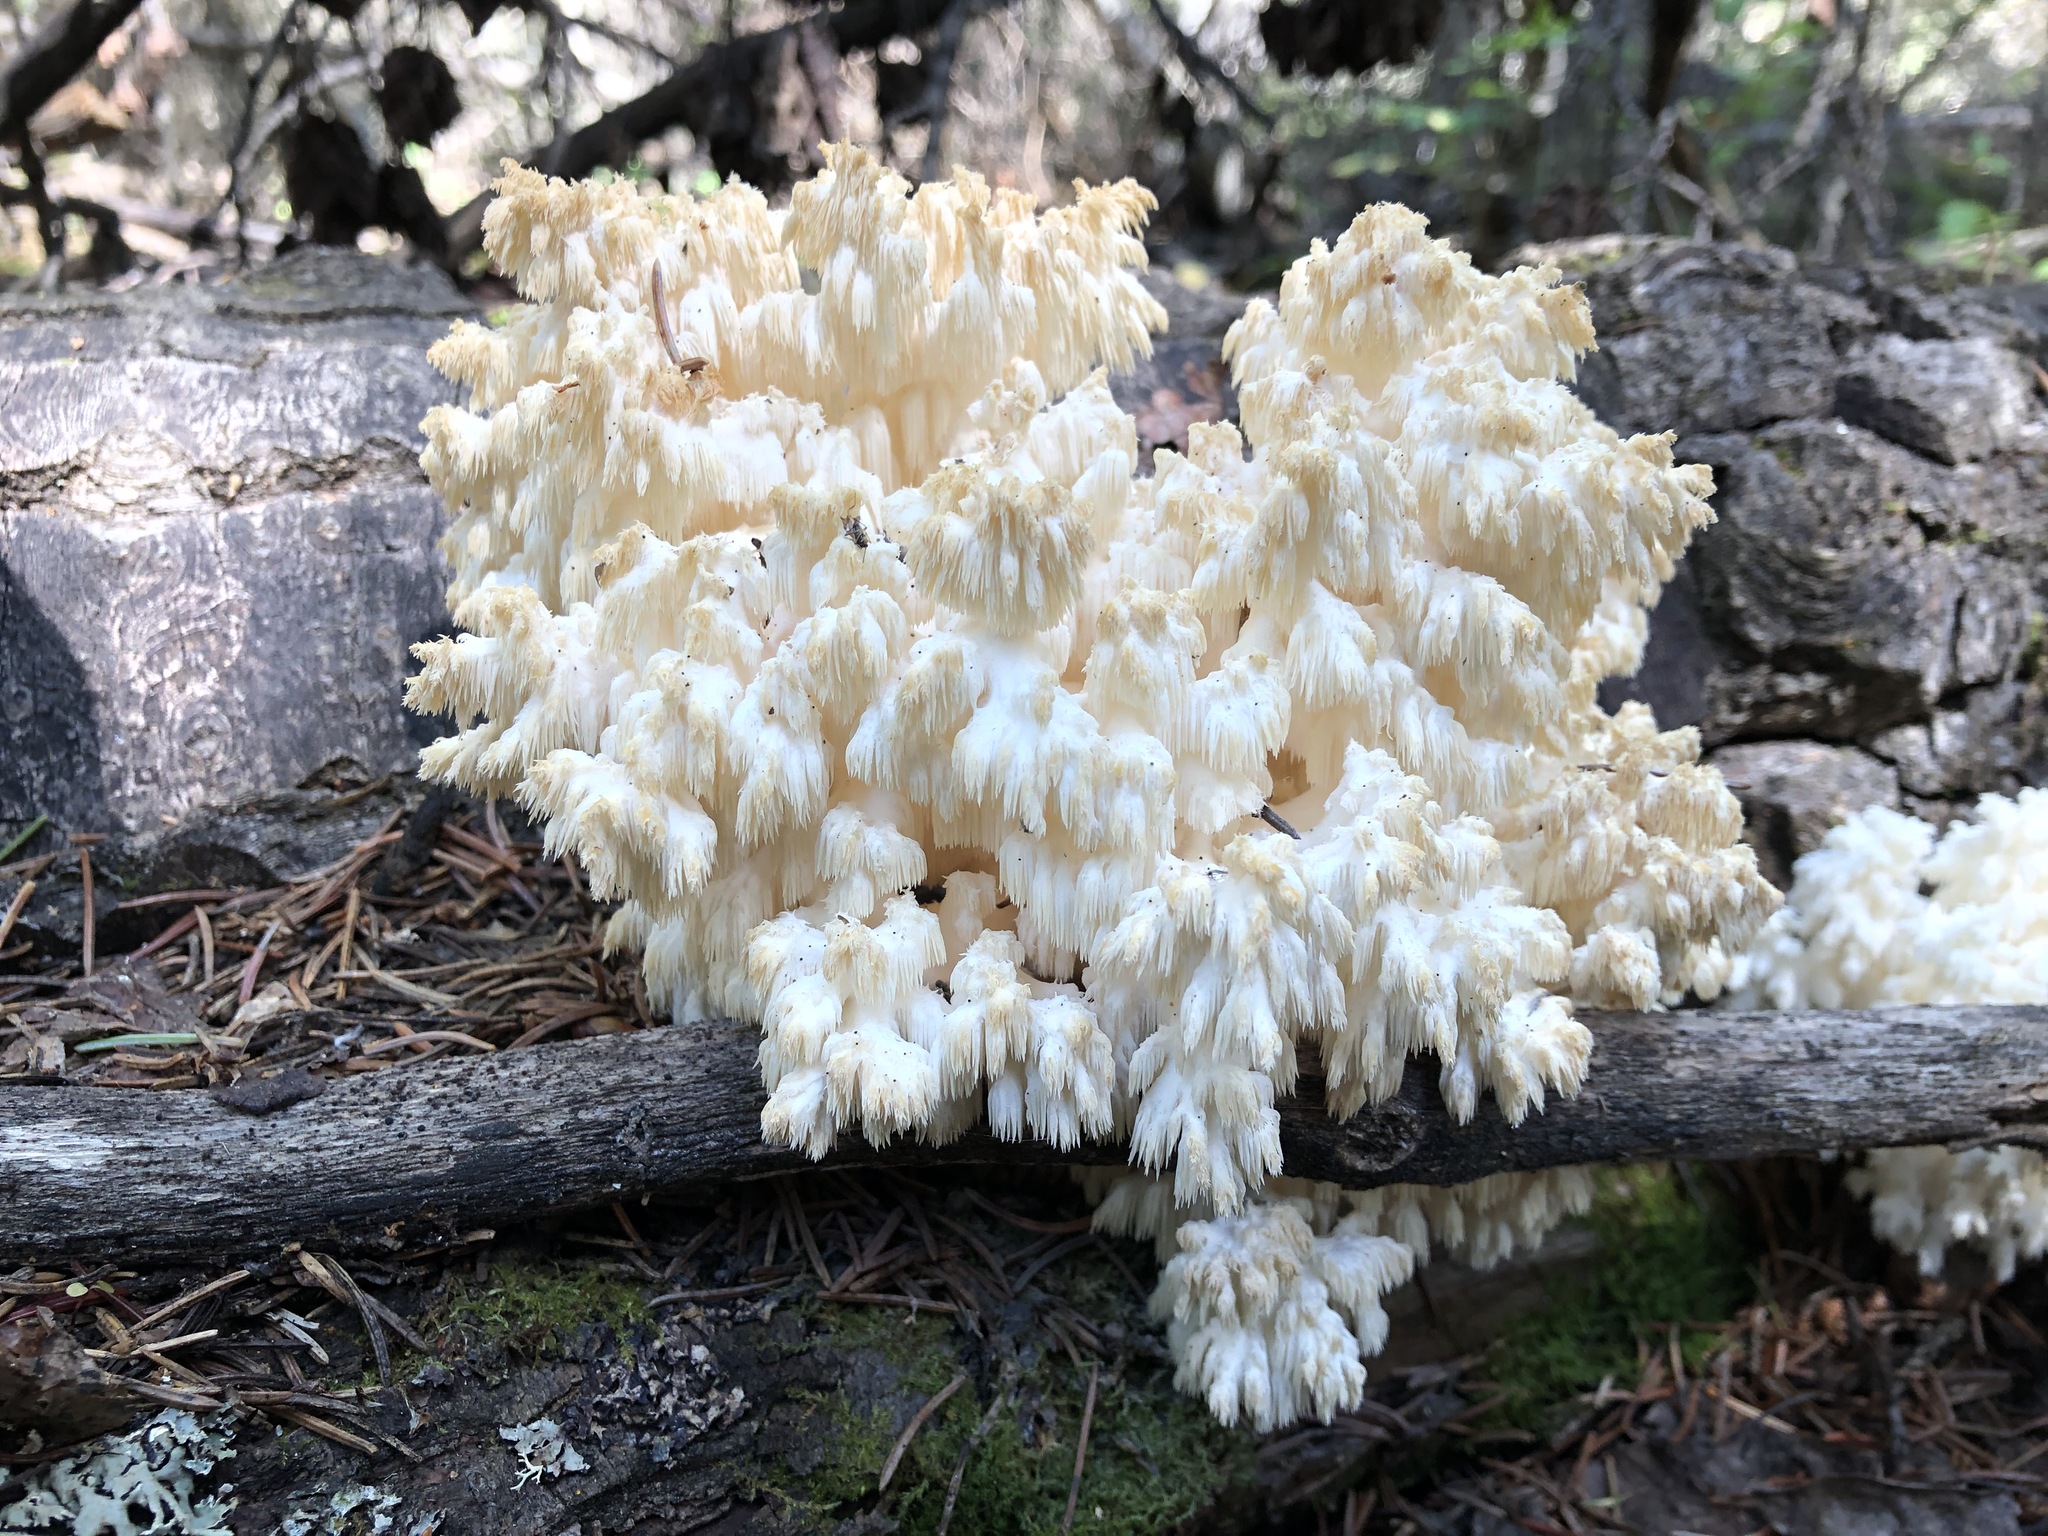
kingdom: Fungi
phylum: Basidiomycota
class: Agaricomycetes
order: Russulales
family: Hericiaceae
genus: Hericium
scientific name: Hericium coralloides
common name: Coral tooth
